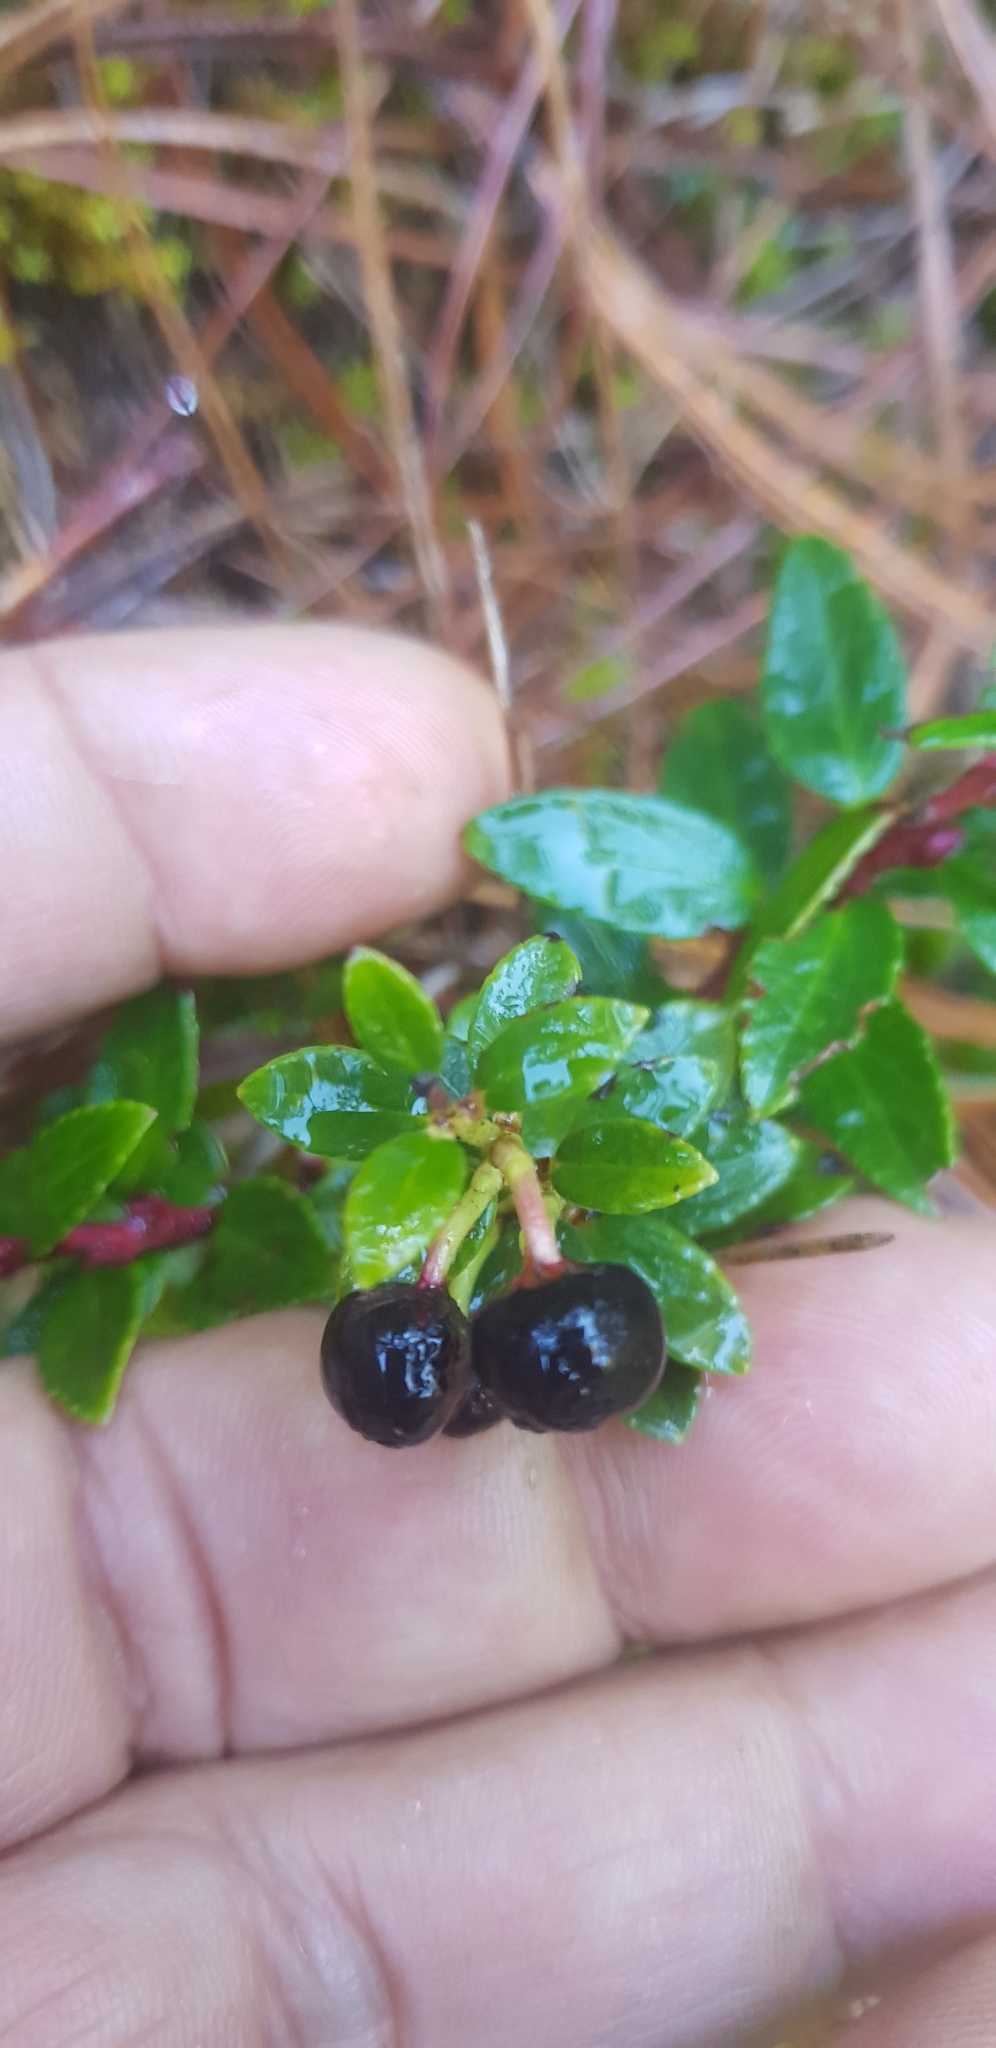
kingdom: Plantae
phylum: Tracheophyta
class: Magnoliopsida
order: Ericales
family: Ericaceae
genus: Gaultheria
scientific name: Gaultheria myrsinoides
